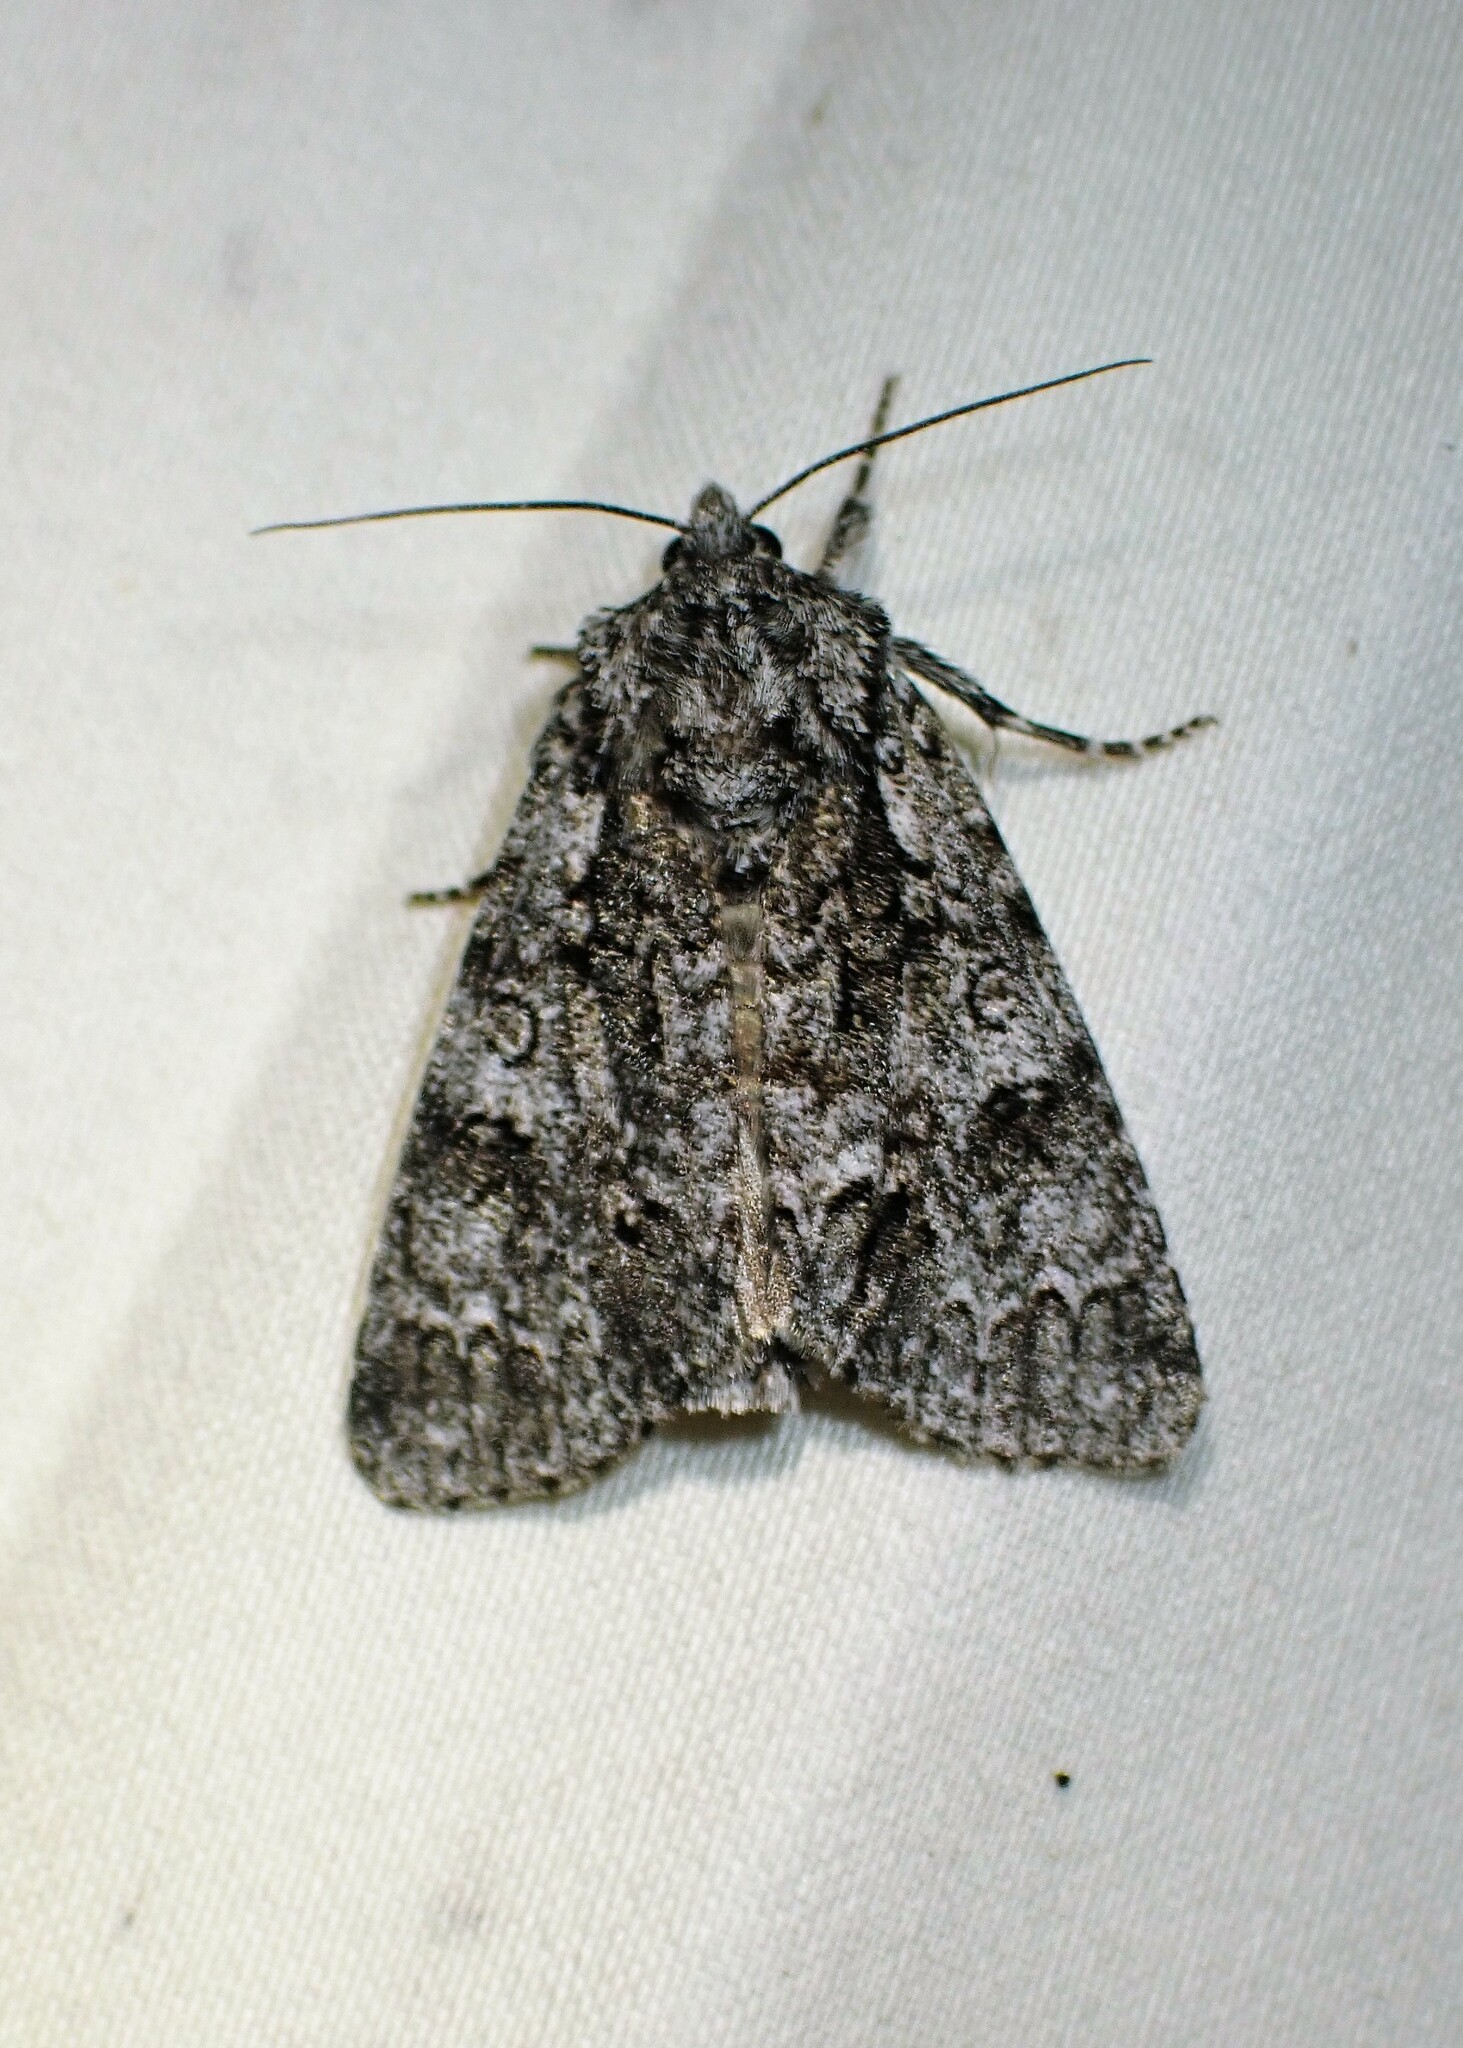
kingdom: Animalia
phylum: Arthropoda
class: Insecta
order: Lepidoptera
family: Noctuidae
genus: Acronicta
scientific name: Acronicta impressa
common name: Impressed dagger
